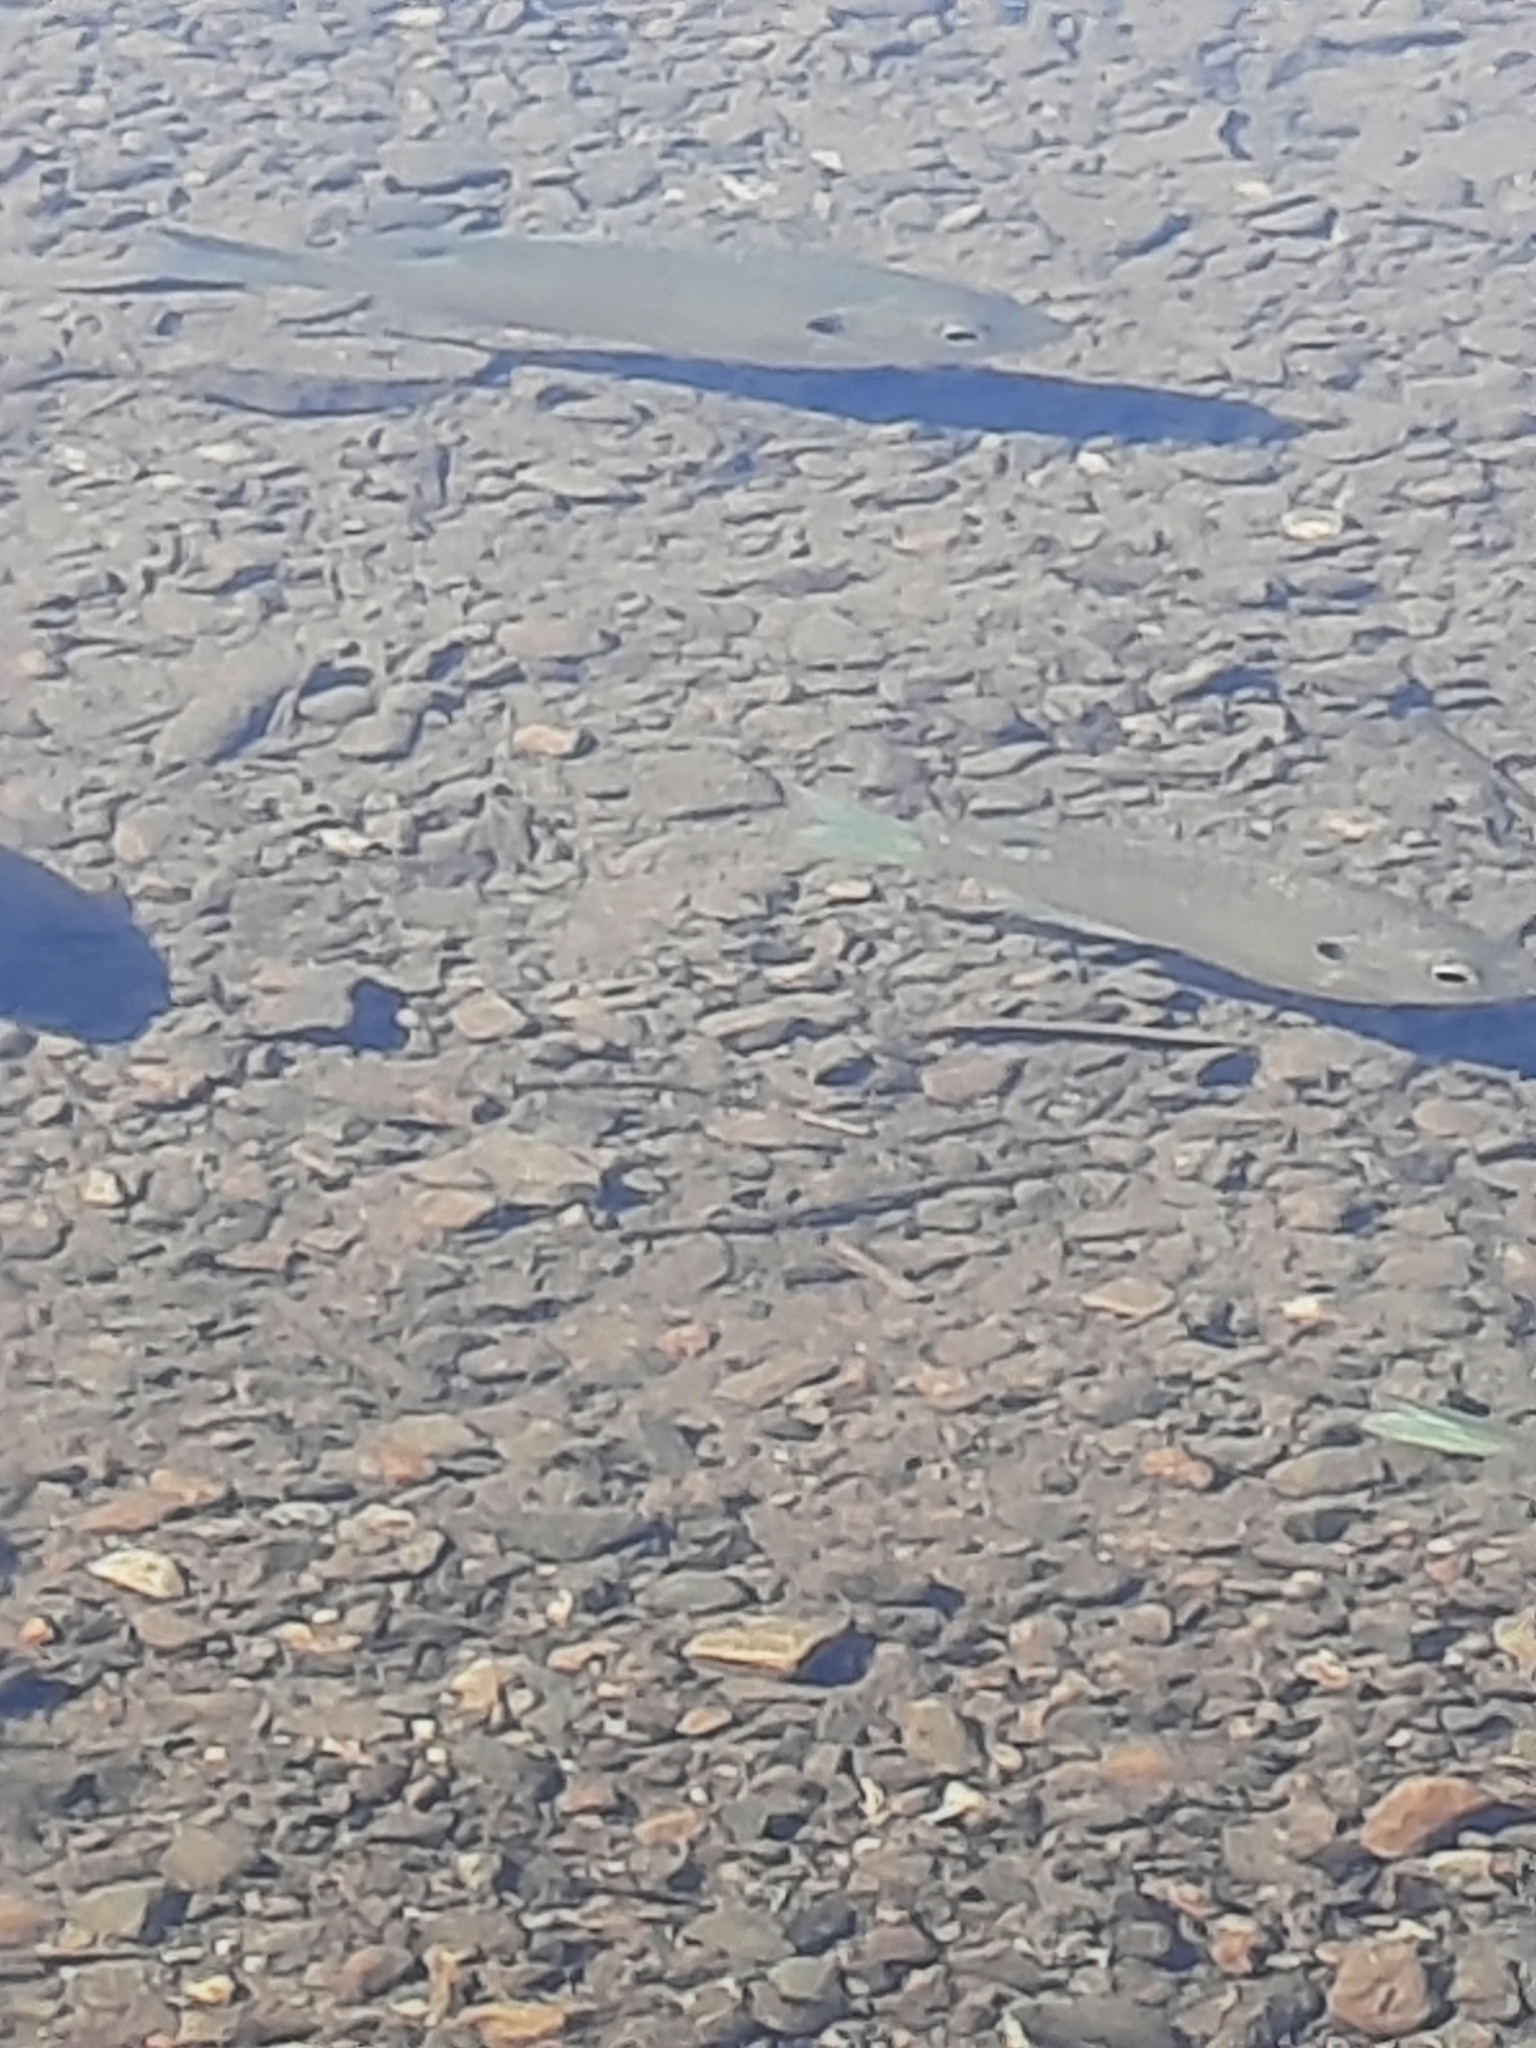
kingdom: Animalia
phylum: Chordata
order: Perciformes
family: Centrarchidae
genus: Lepomis
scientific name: Lepomis macrochirus
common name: Bluegill
